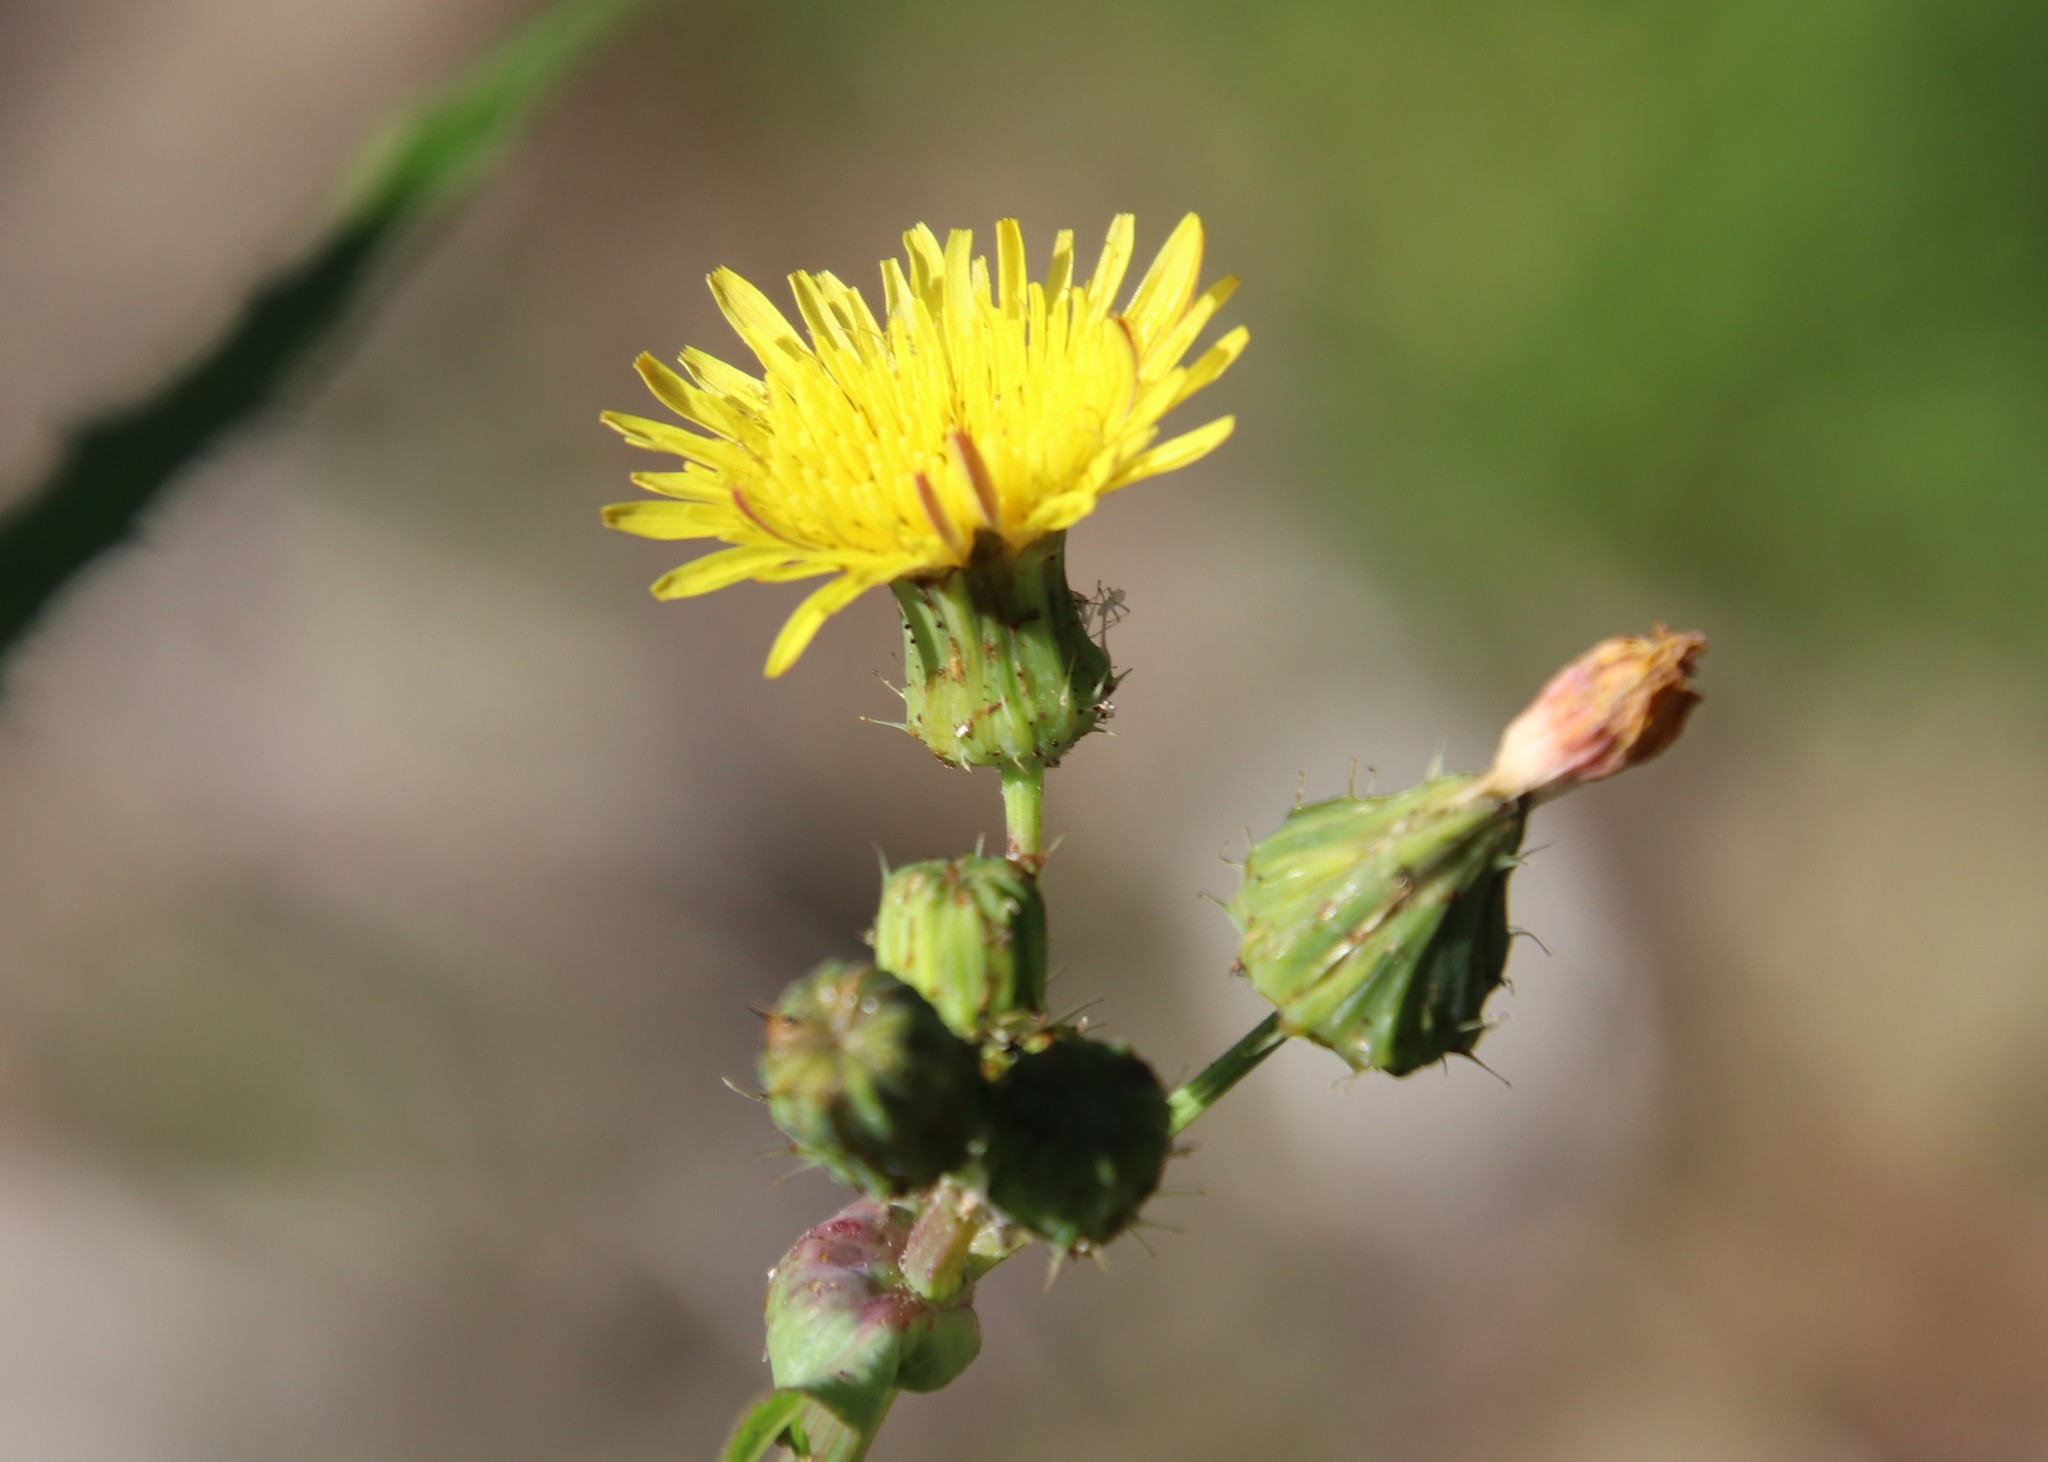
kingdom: Plantae
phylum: Tracheophyta
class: Magnoliopsida
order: Asterales
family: Asteraceae
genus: Sonchus
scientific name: Sonchus oleraceus
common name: Common sowthistle
